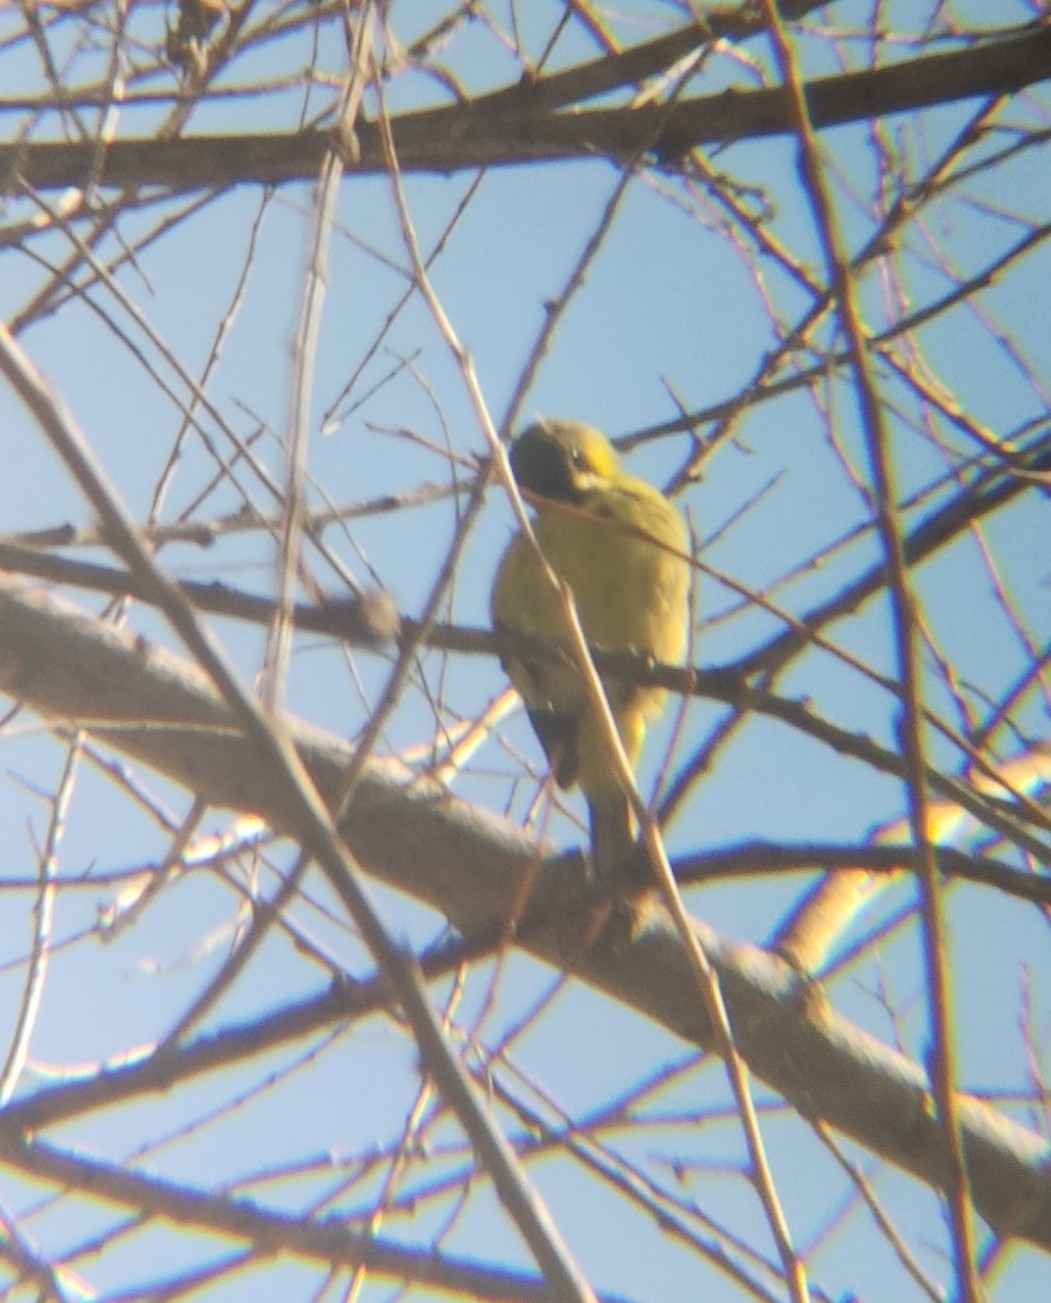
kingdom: Animalia
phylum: Chordata
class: Aves
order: Passeriformes
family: Fringillidae
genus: Spinus
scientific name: Spinus psaltria
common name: Lesser goldfinch
